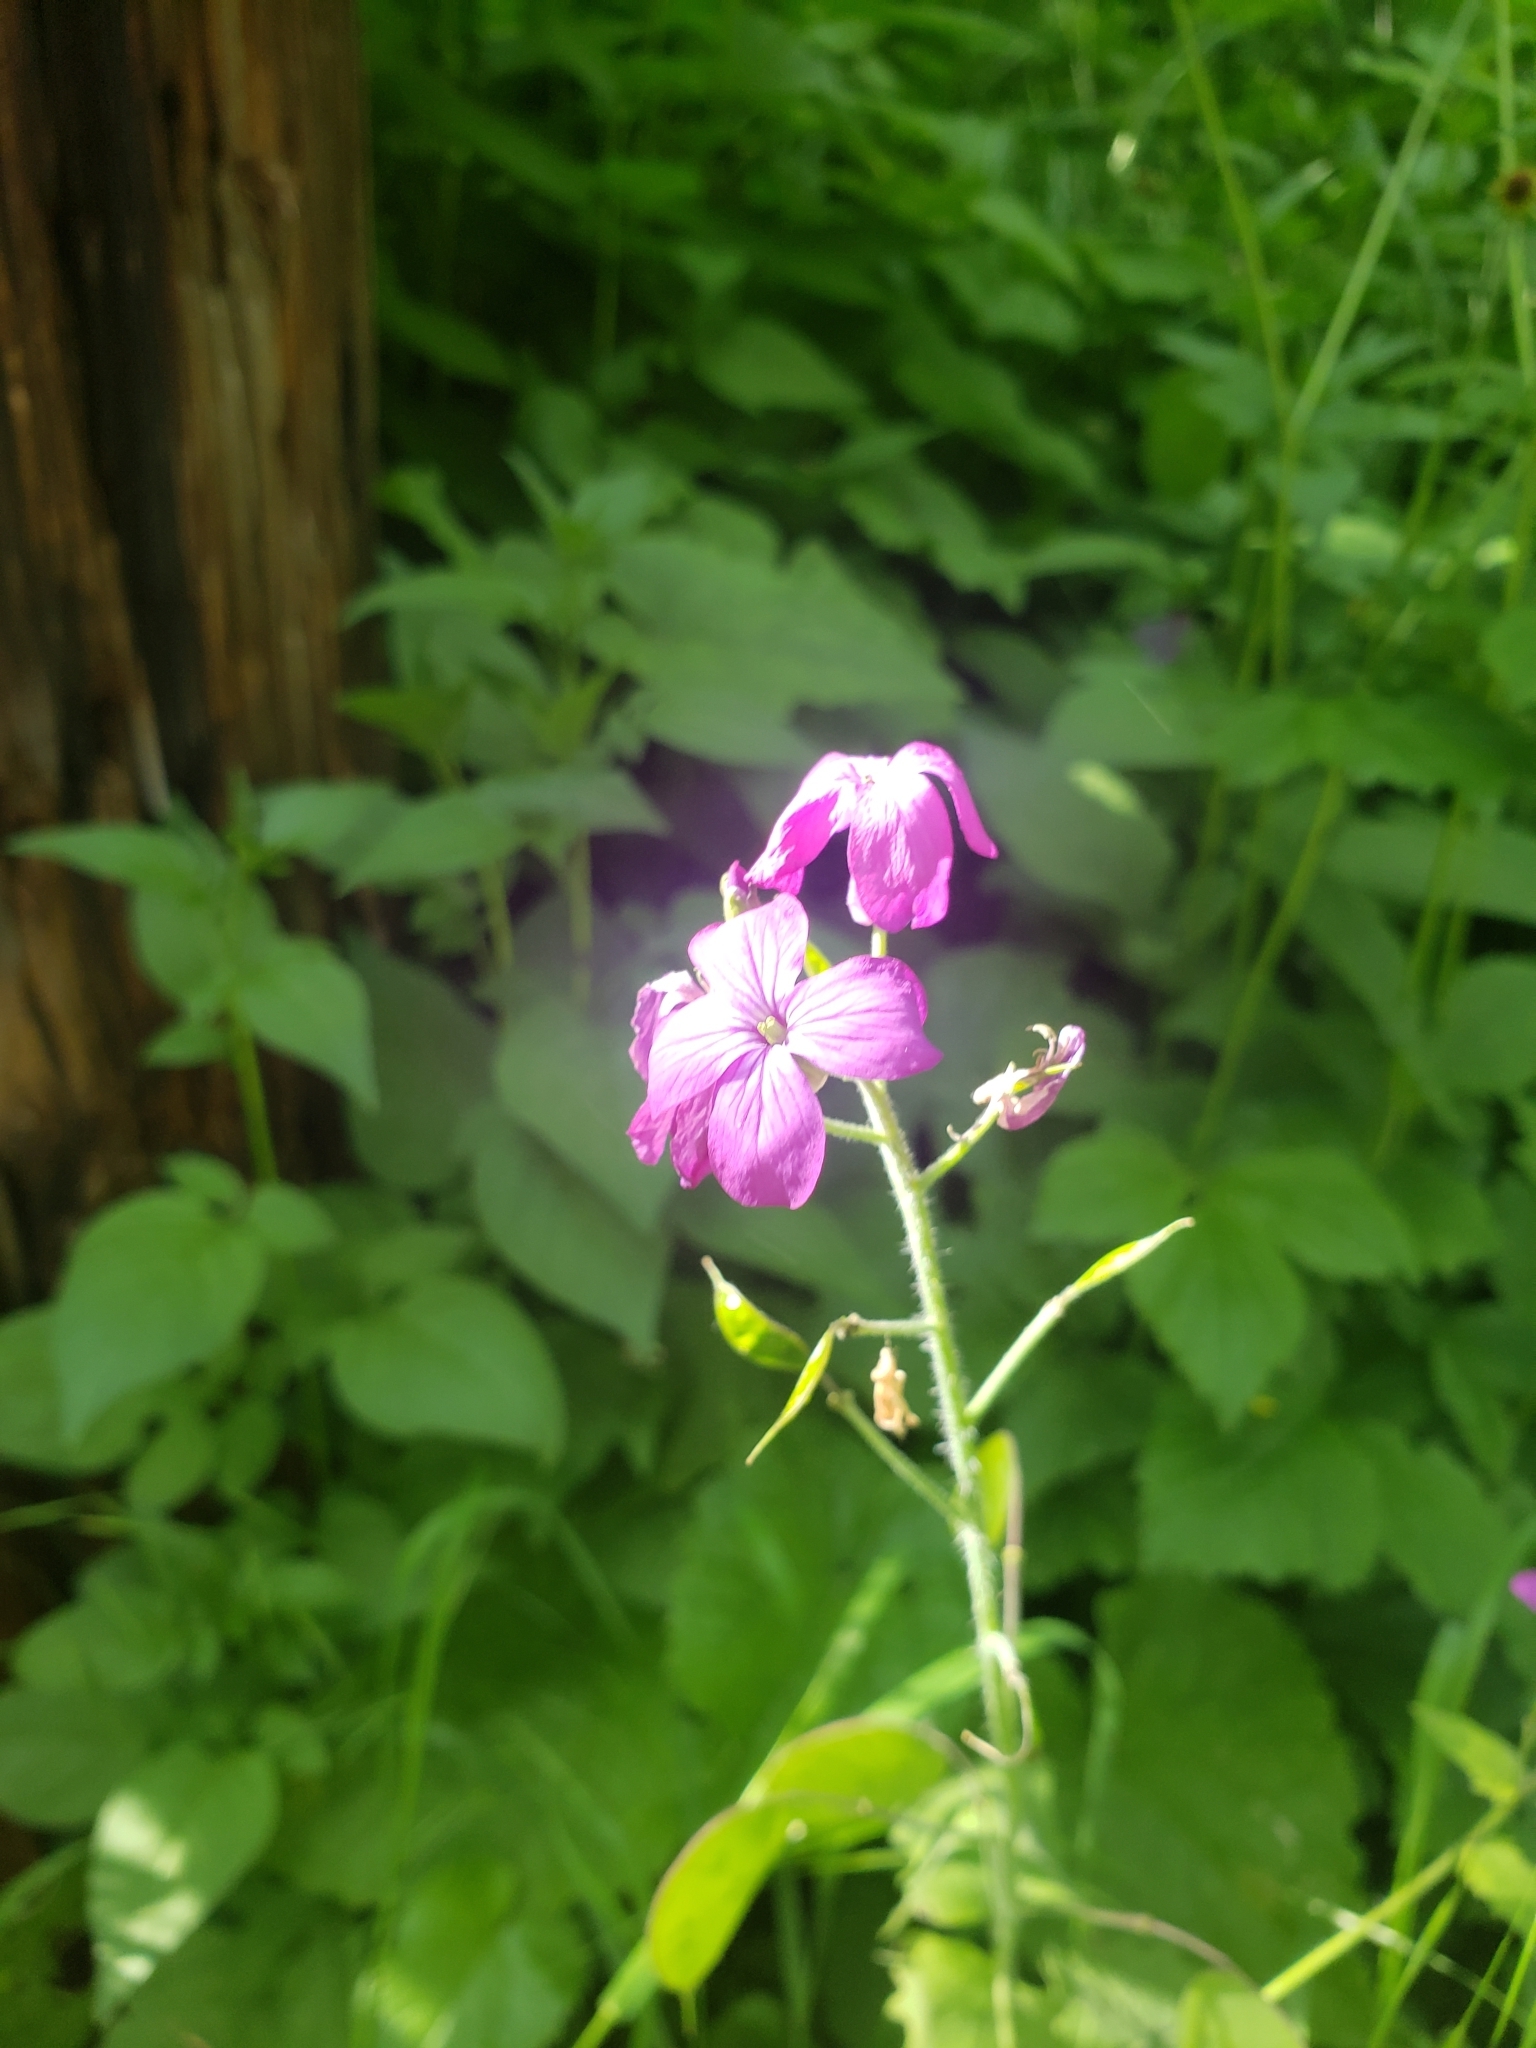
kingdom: Plantae
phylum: Tracheophyta
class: Magnoliopsida
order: Brassicales
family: Brassicaceae
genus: Lunaria
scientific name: Lunaria annua
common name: Honesty
